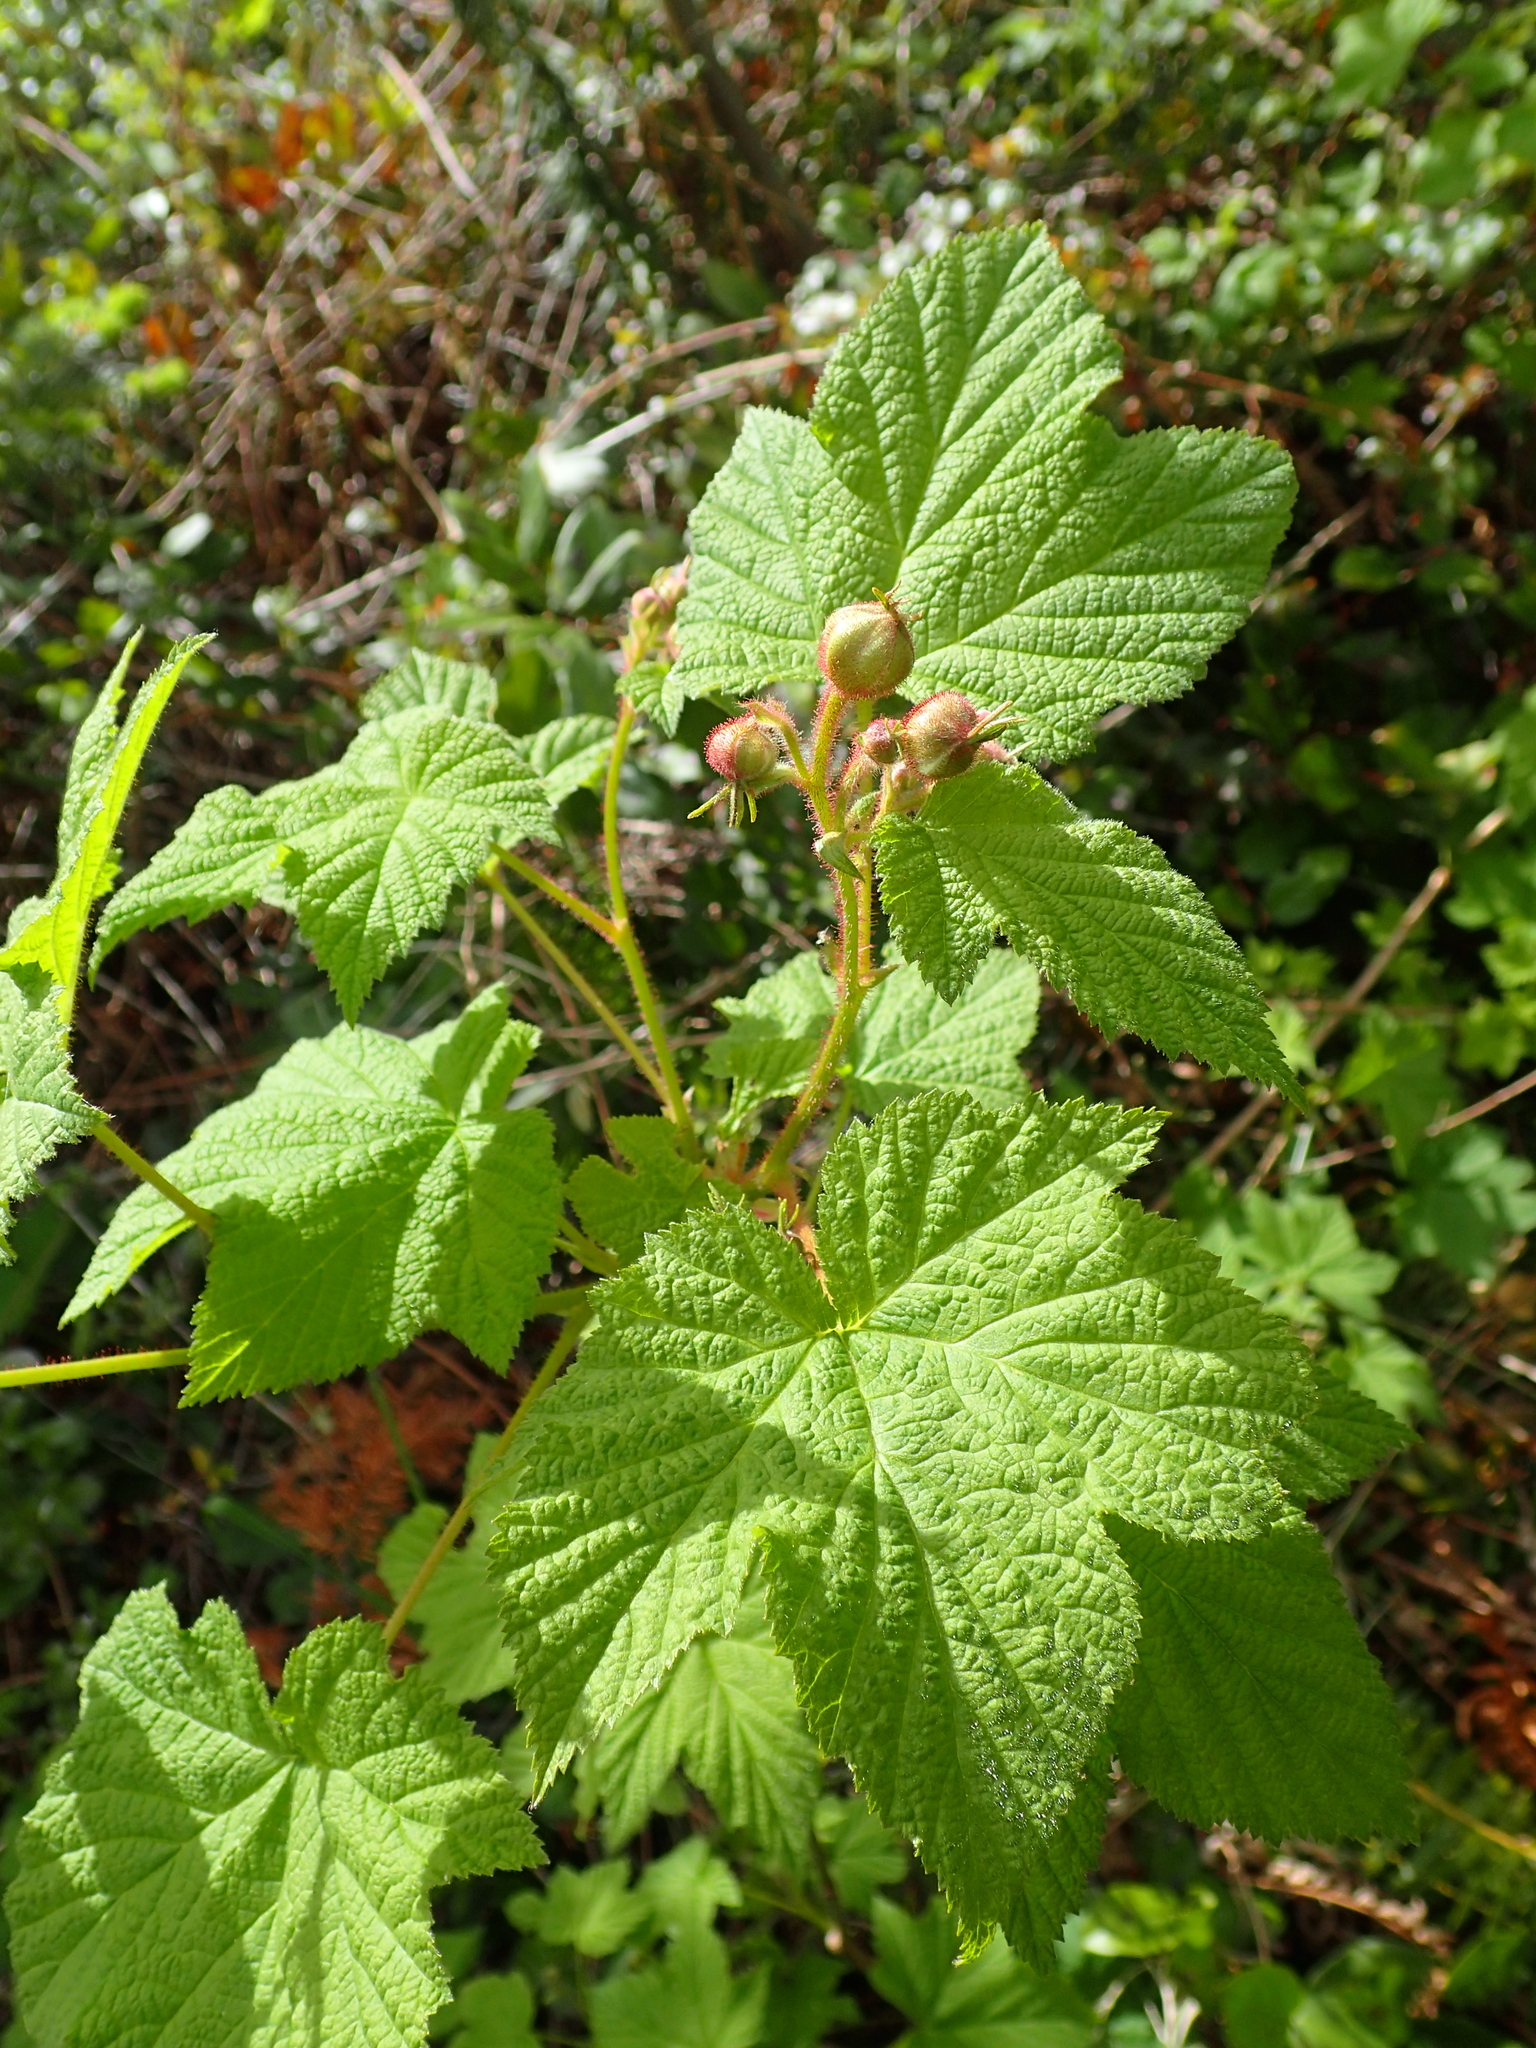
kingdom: Plantae
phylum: Tracheophyta
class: Magnoliopsida
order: Rosales
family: Rosaceae
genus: Rubus
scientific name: Rubus parviflorus
